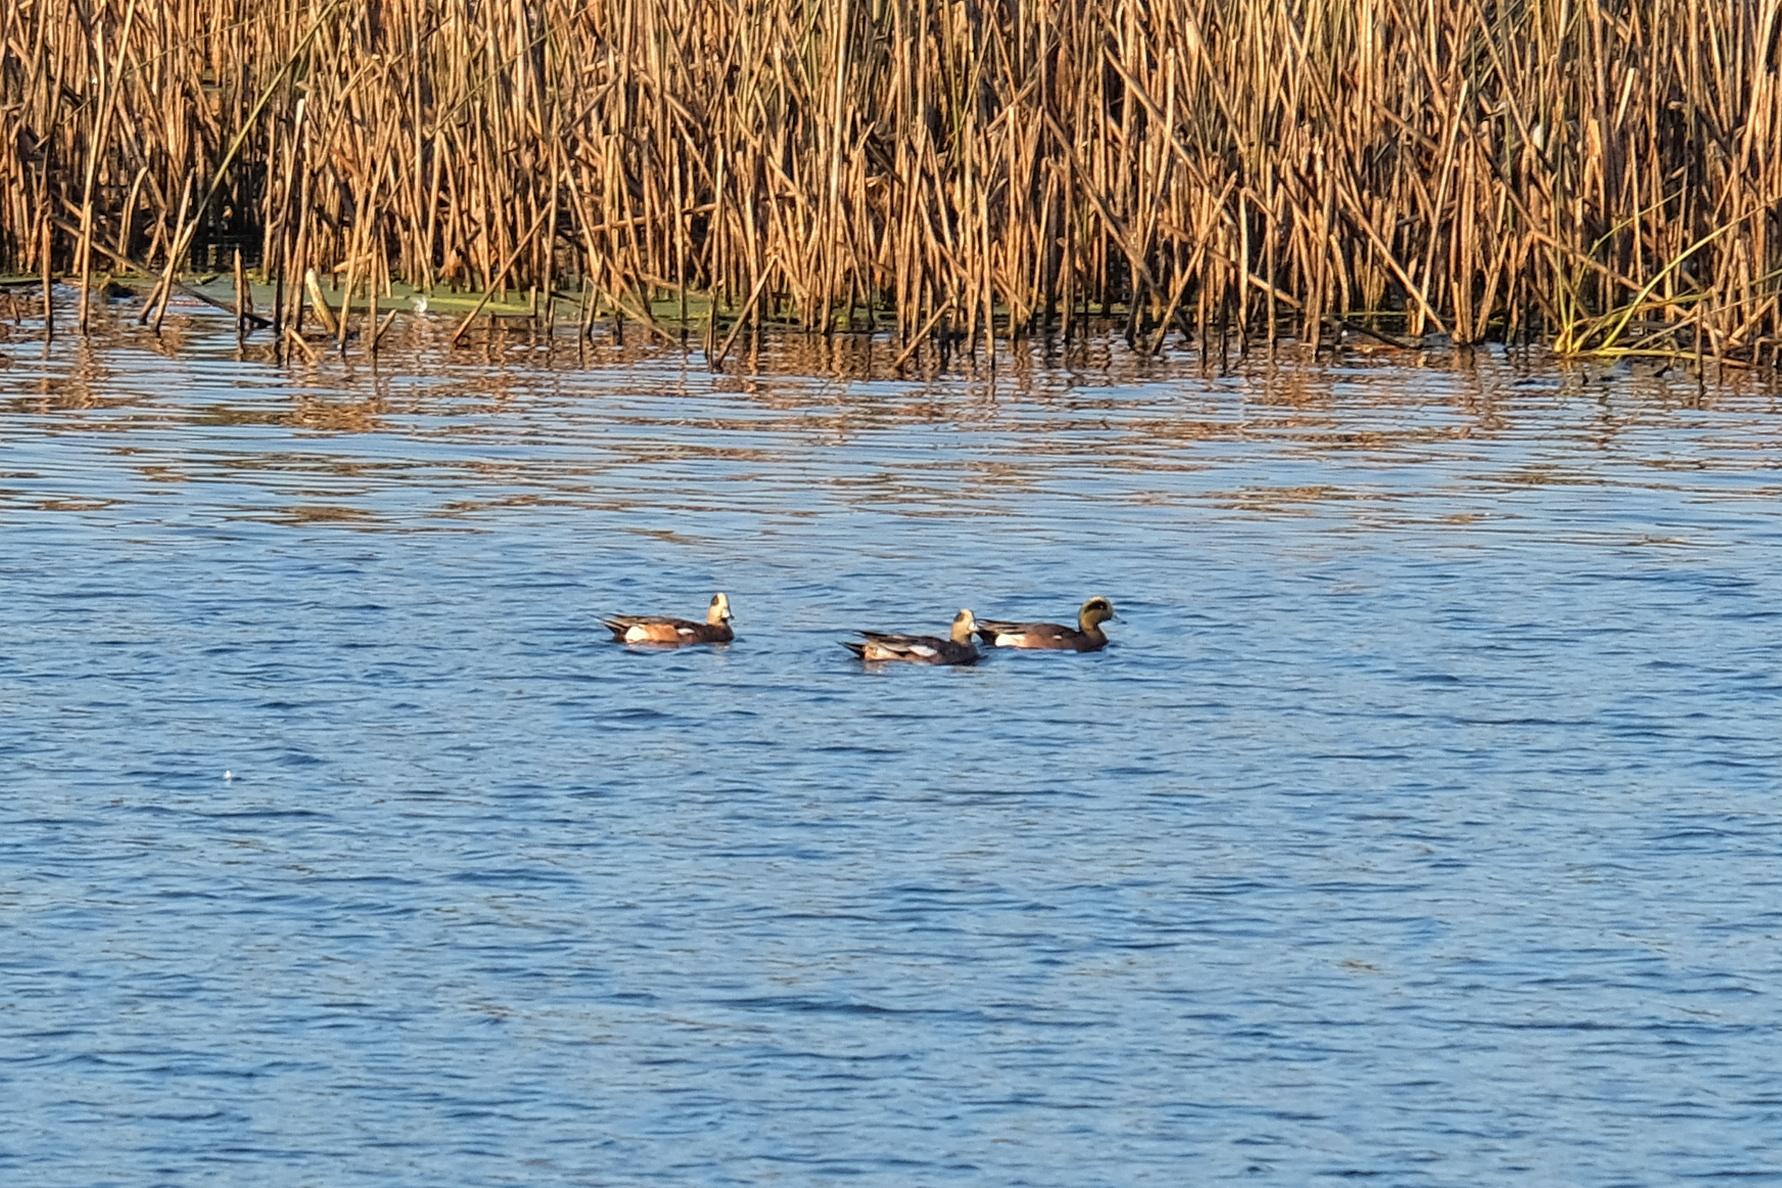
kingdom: Animalia
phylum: Chordata
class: Aves
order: Anseriformes
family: Anatidae
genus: Mareca
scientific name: Mareca americana
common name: American wigeon
